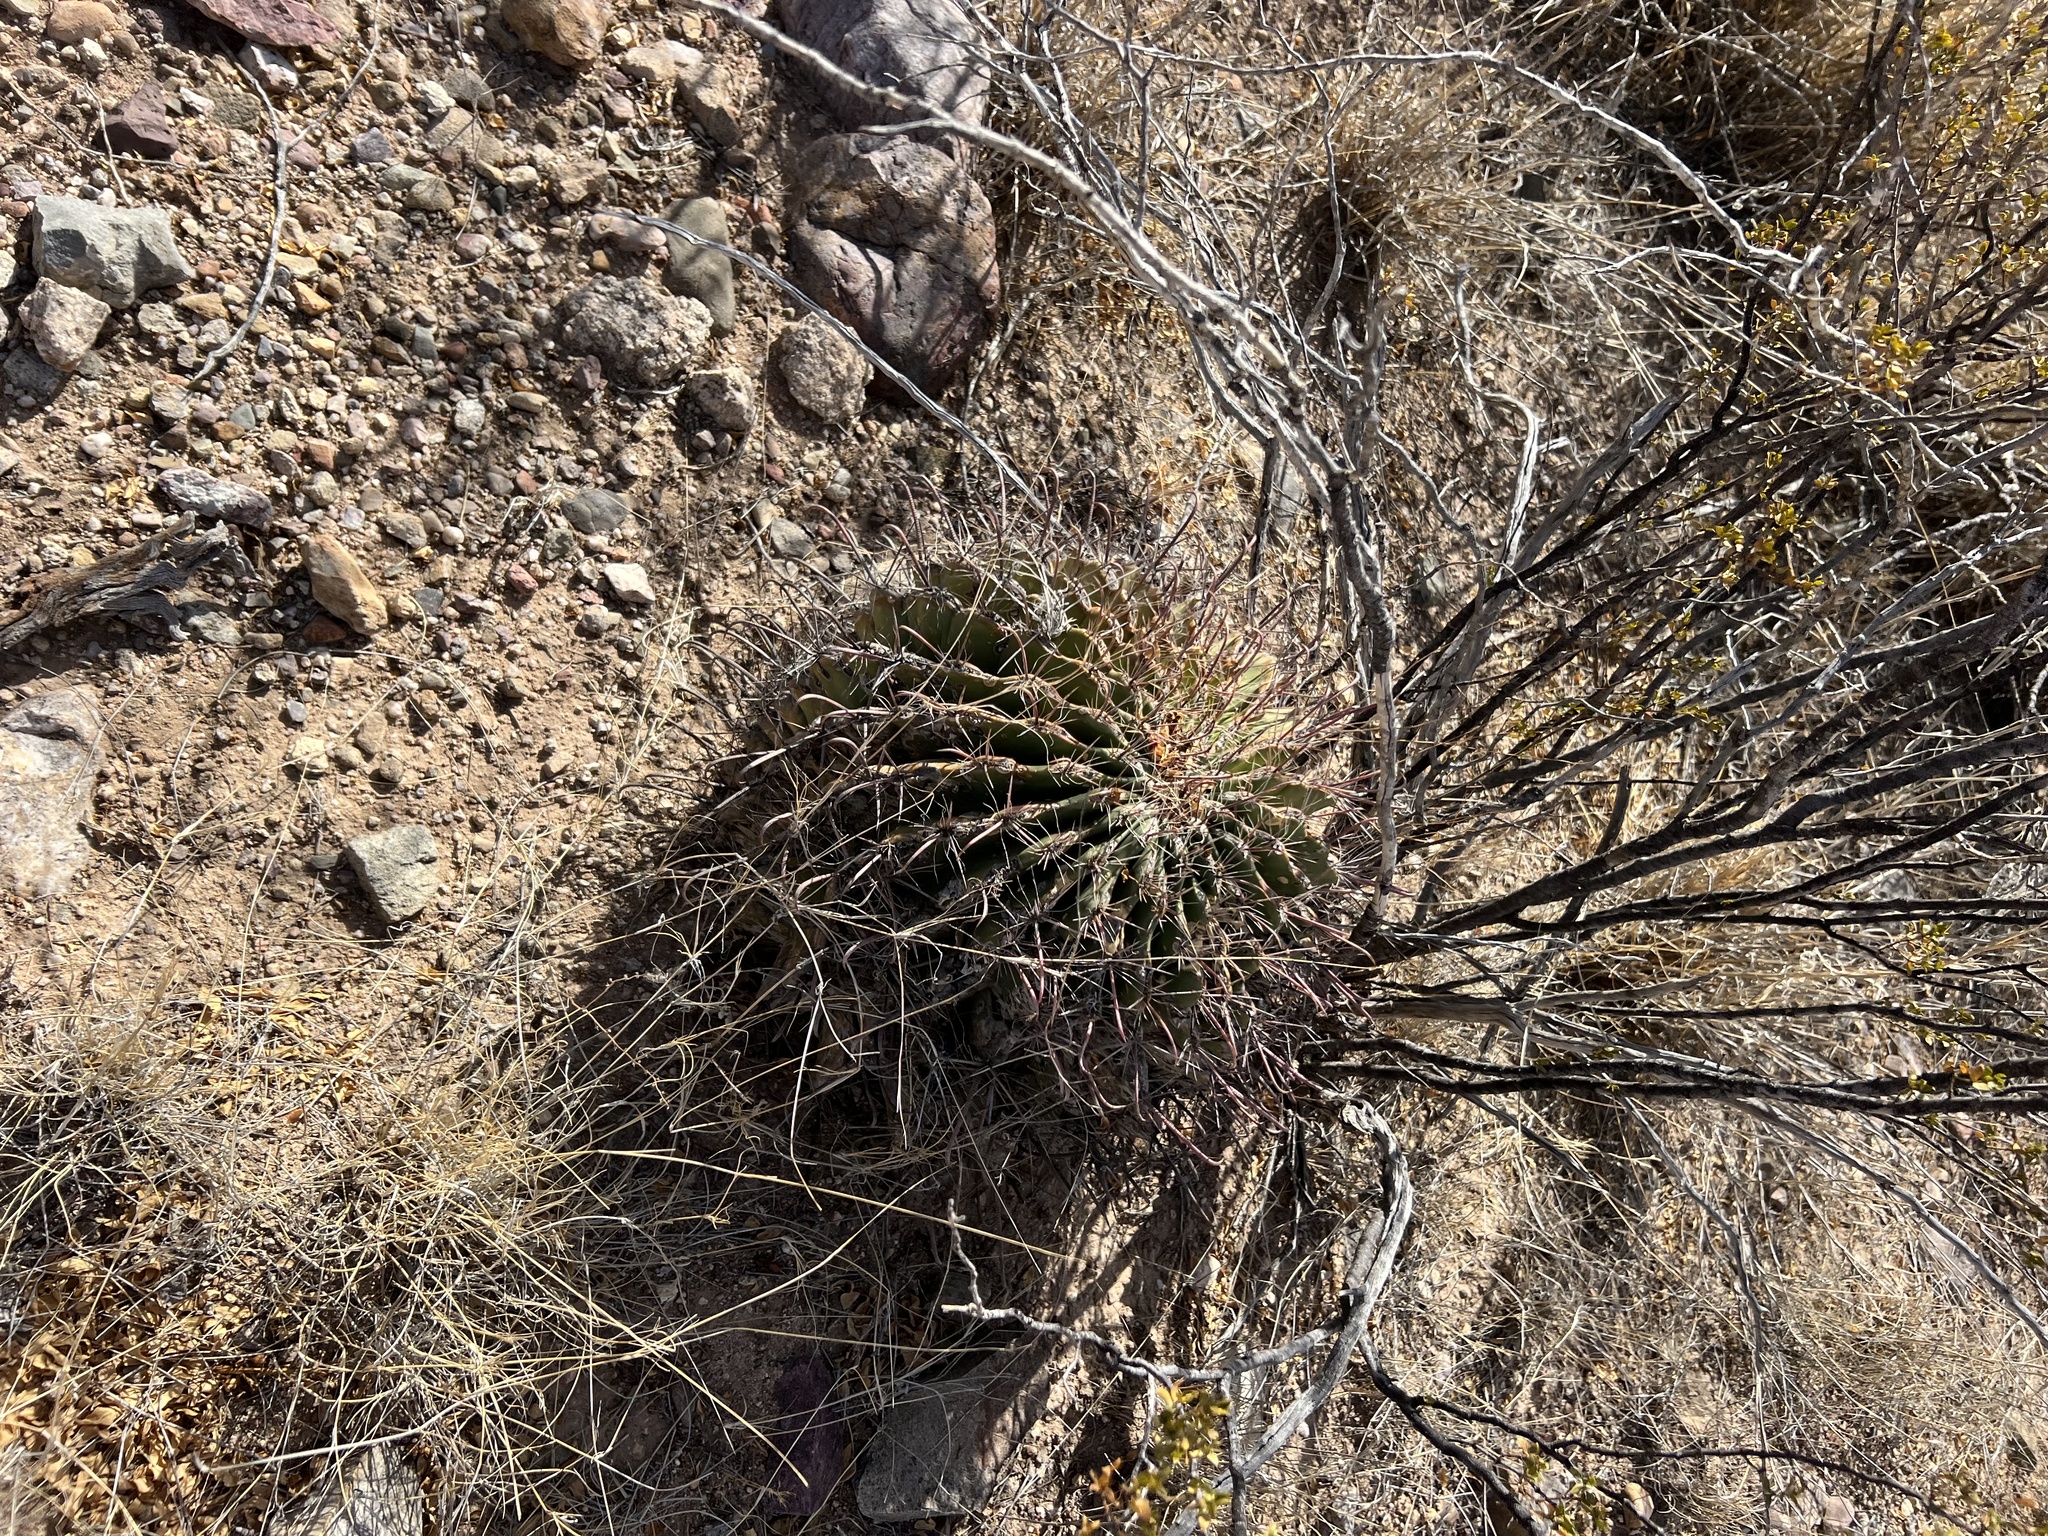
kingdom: Plantae
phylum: Tracheophyta
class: Magnoliopsida
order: Caryophyllales
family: Cactaceae
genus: Ferocactus
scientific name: Ferocactus wislizeni
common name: Candy barrel cactus
